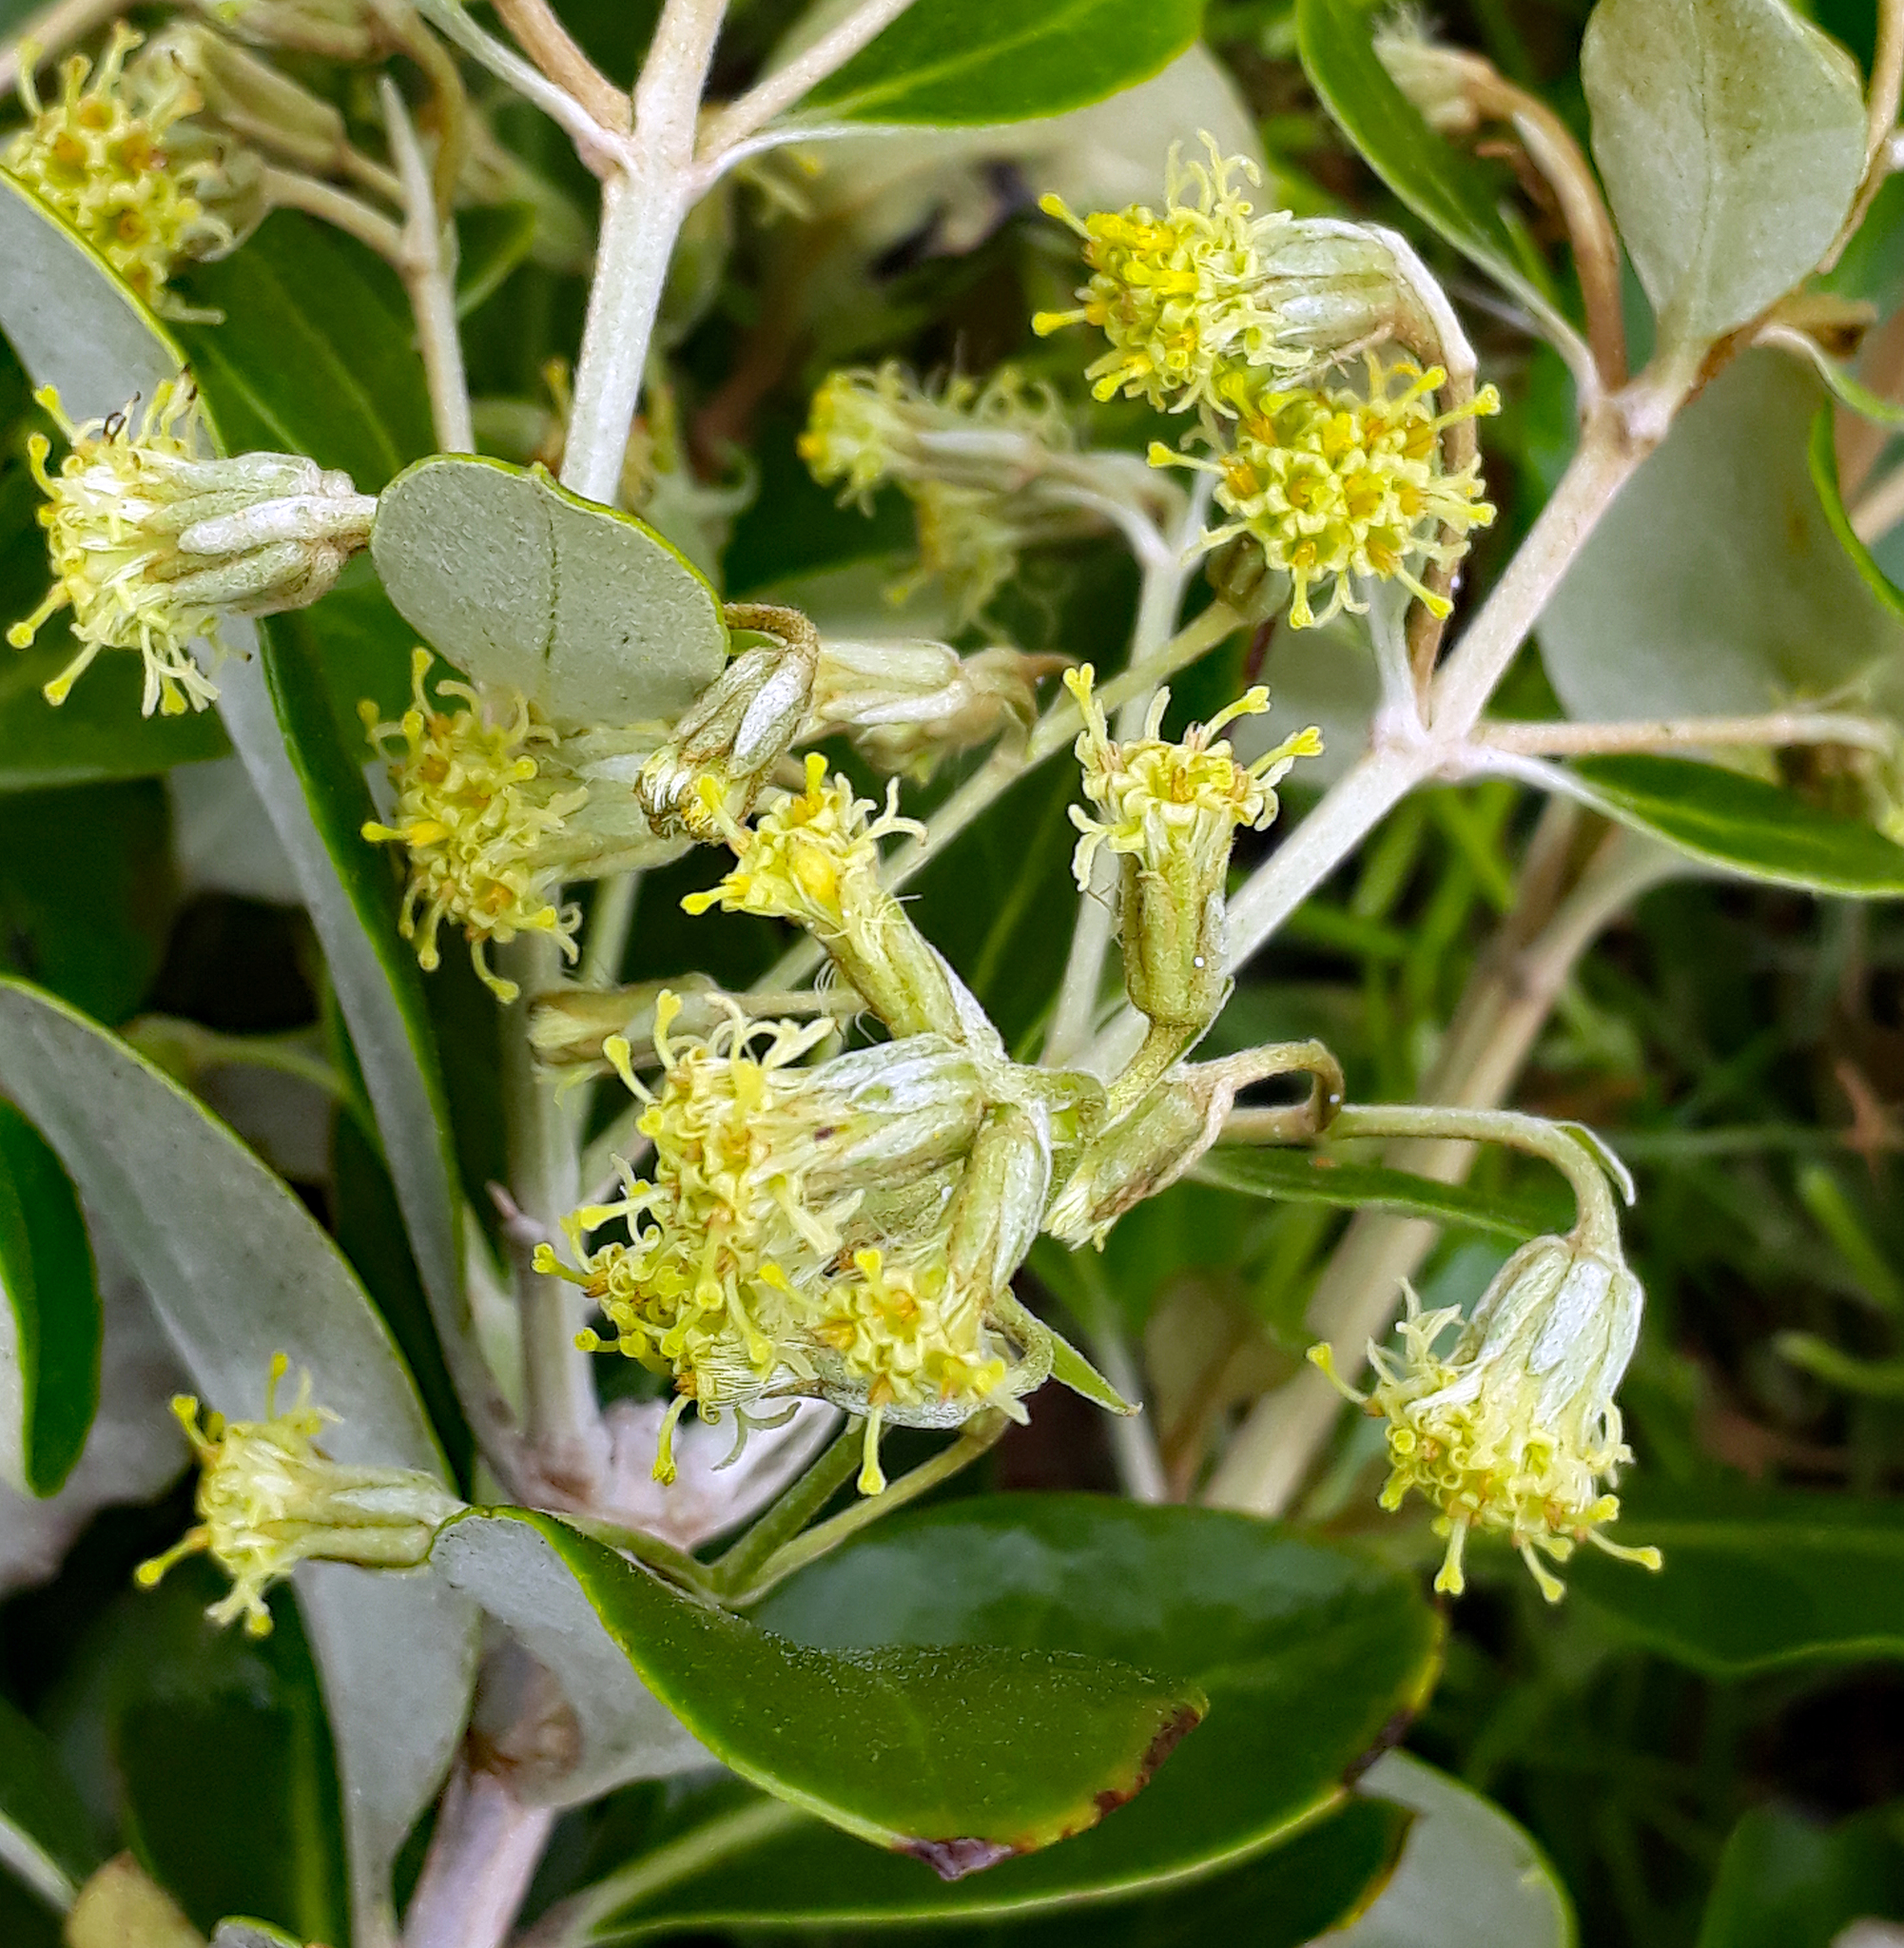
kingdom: Plantae
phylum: Tracheophyta
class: Magnoliopsida
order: Asterales
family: Asteraceae
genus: Olearia
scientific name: Olearia telmatica
